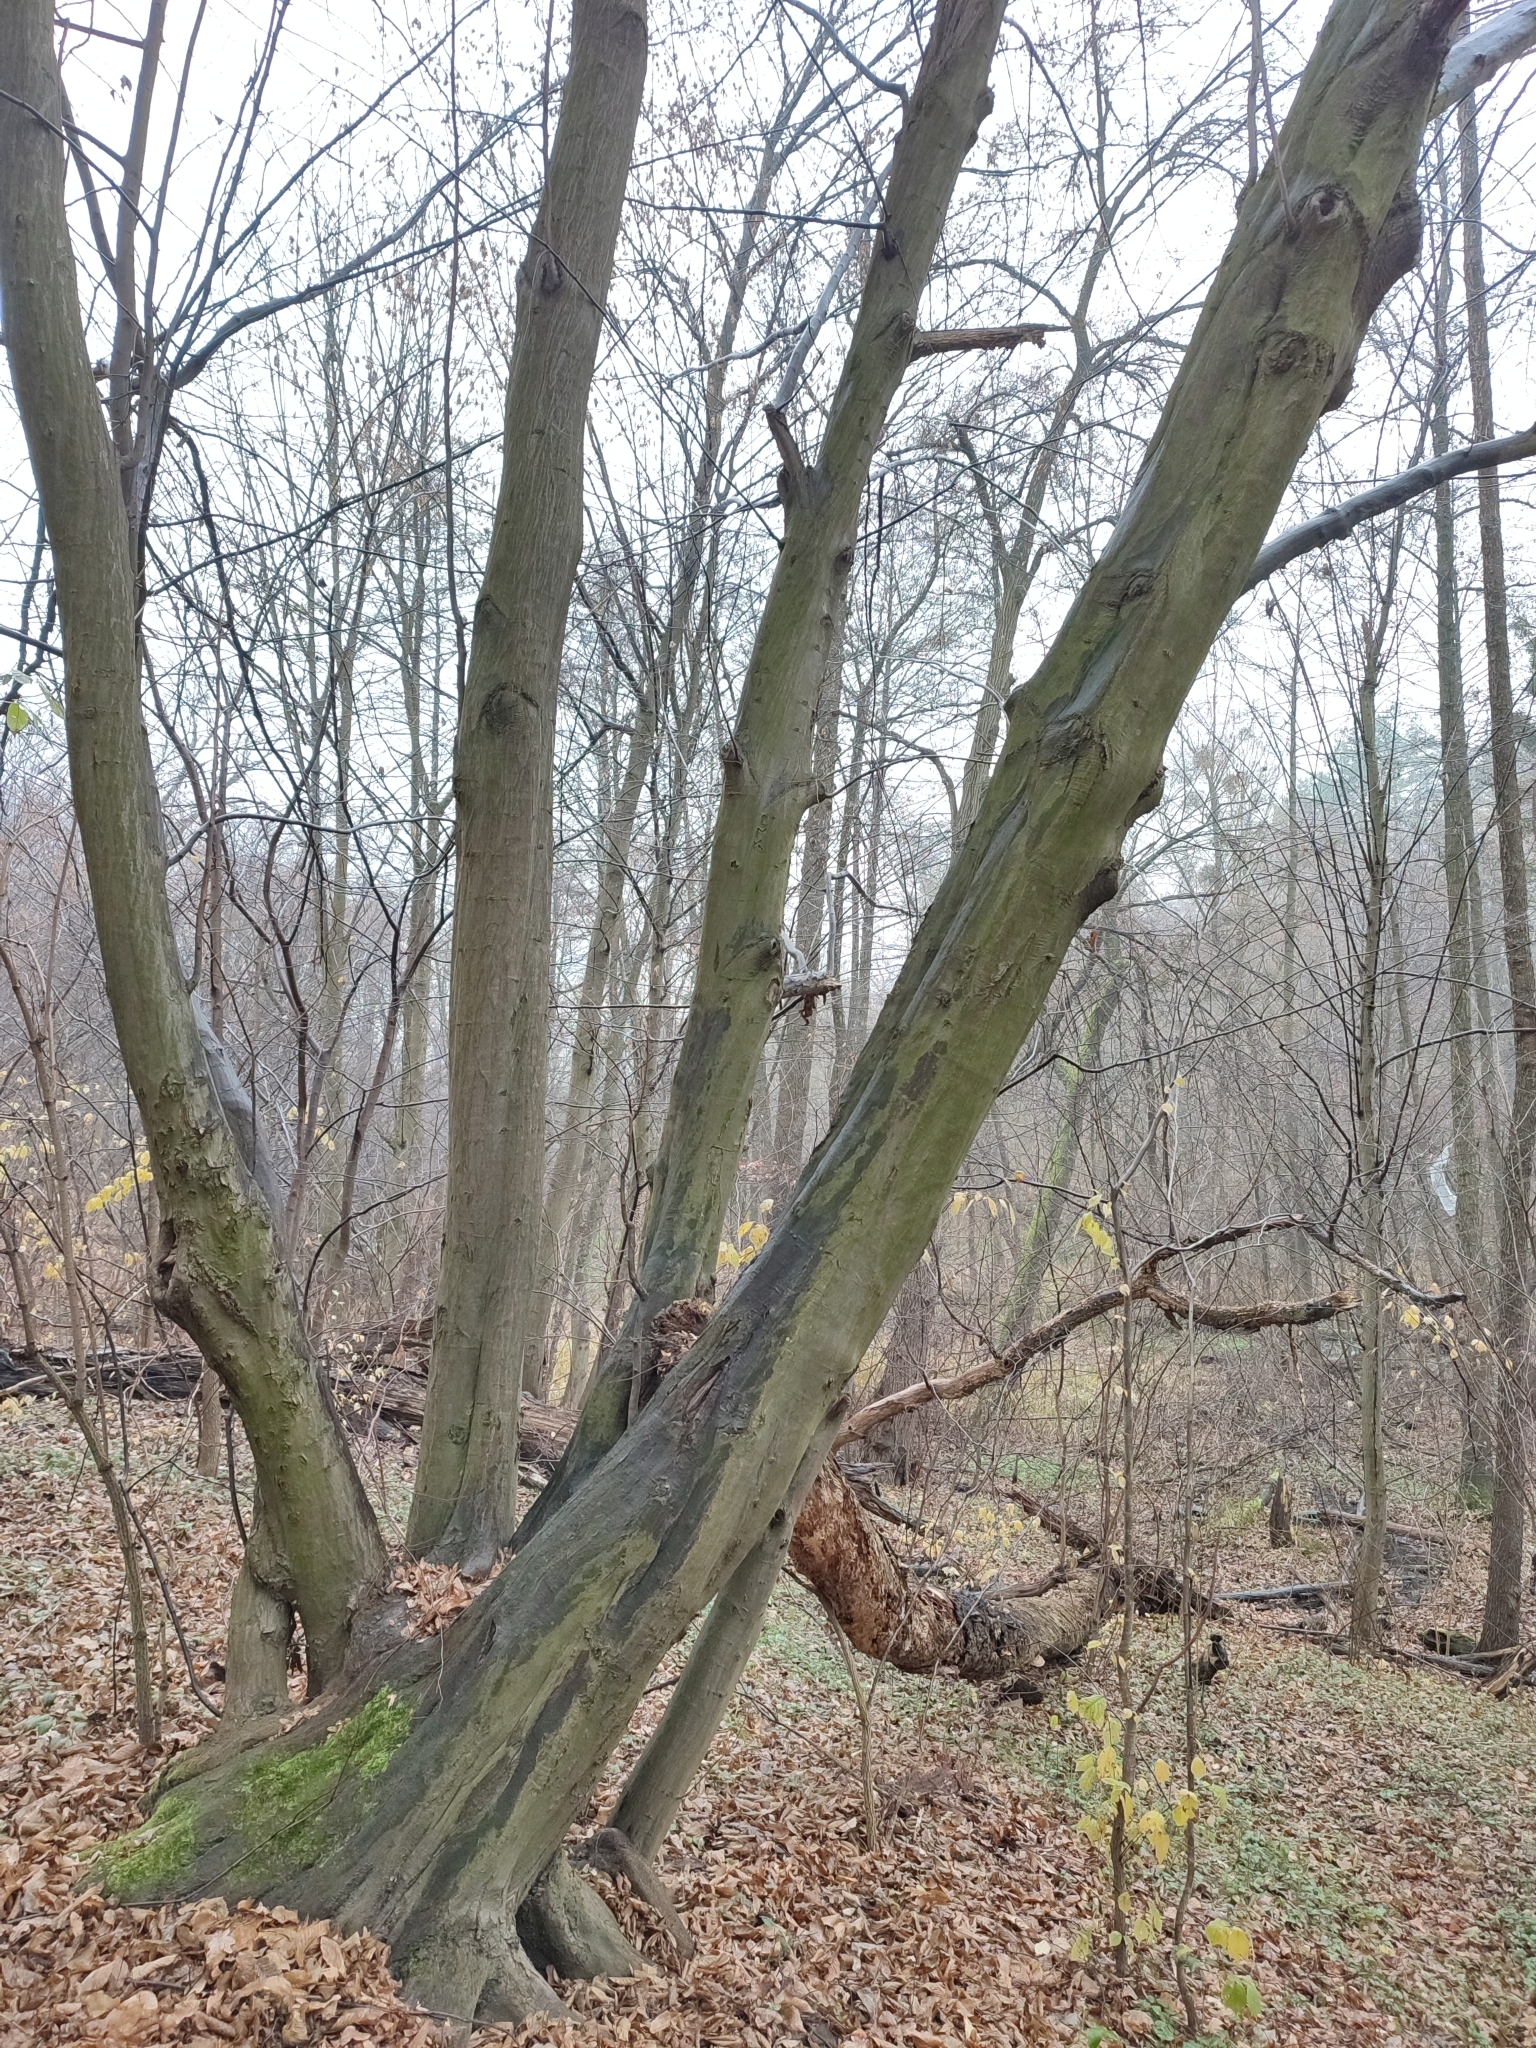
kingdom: Plantae
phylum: Tracheophyta
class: Magnoliopsida
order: Fagales
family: Betulaceae
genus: Carpinus
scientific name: Carpinus betulus
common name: Hornbeam
